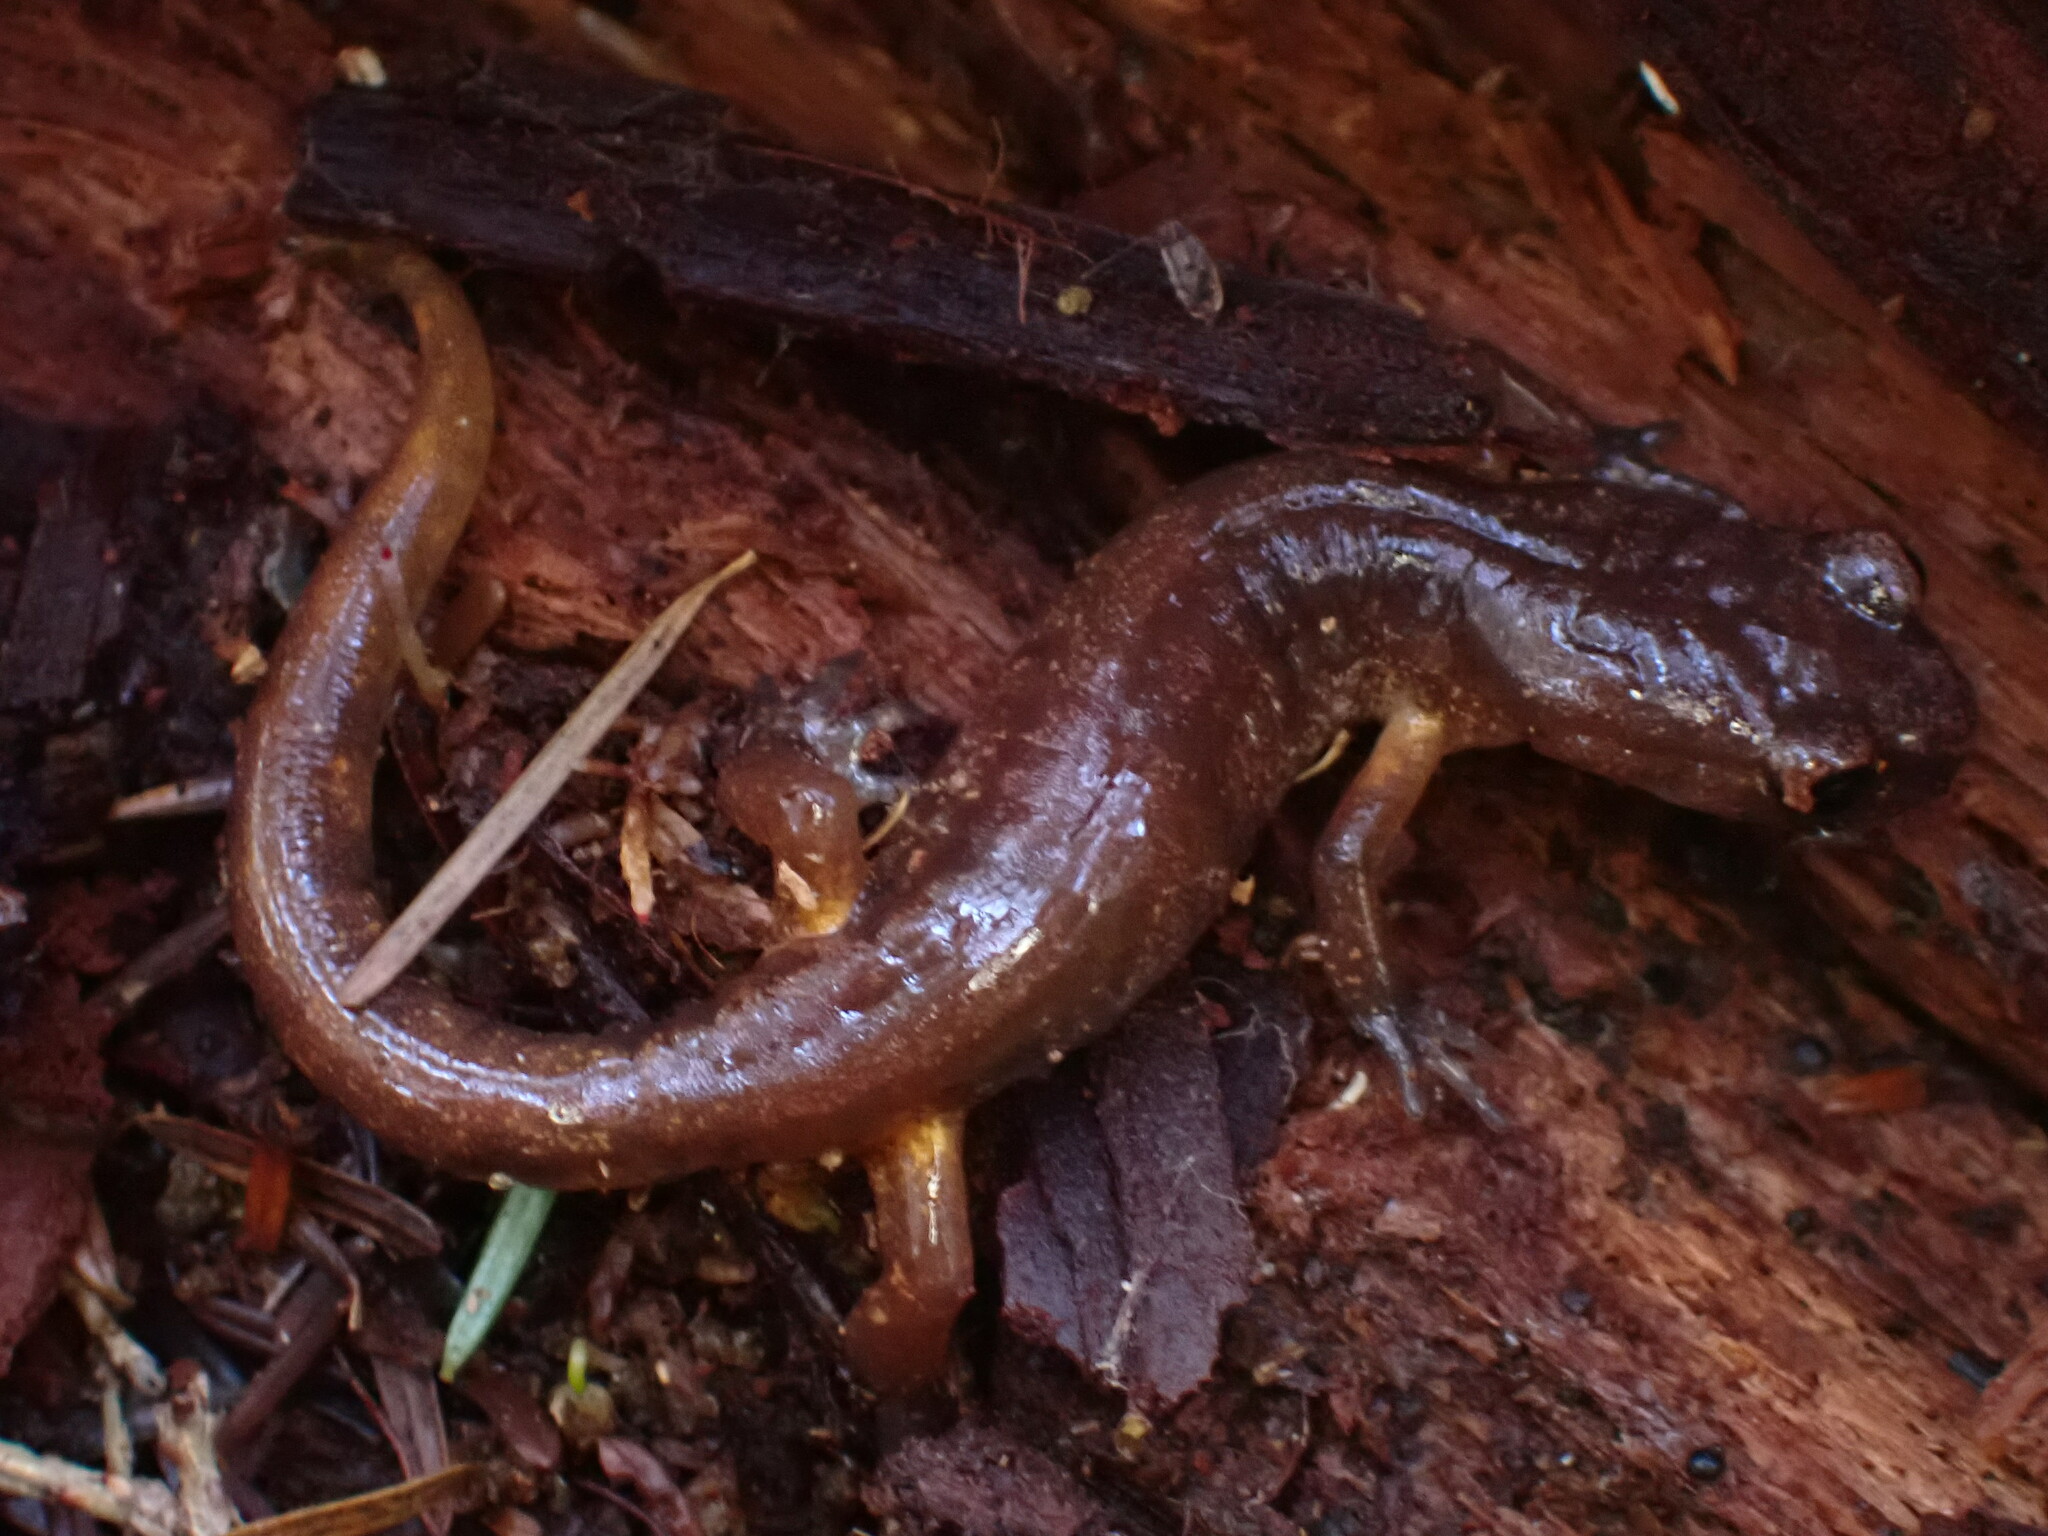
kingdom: Animalia
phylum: Chordata
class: Amphibia
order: Caudata
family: Plethodontidae
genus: Ensatina
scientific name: Ensatina eschscholtzii
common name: Ensatina
